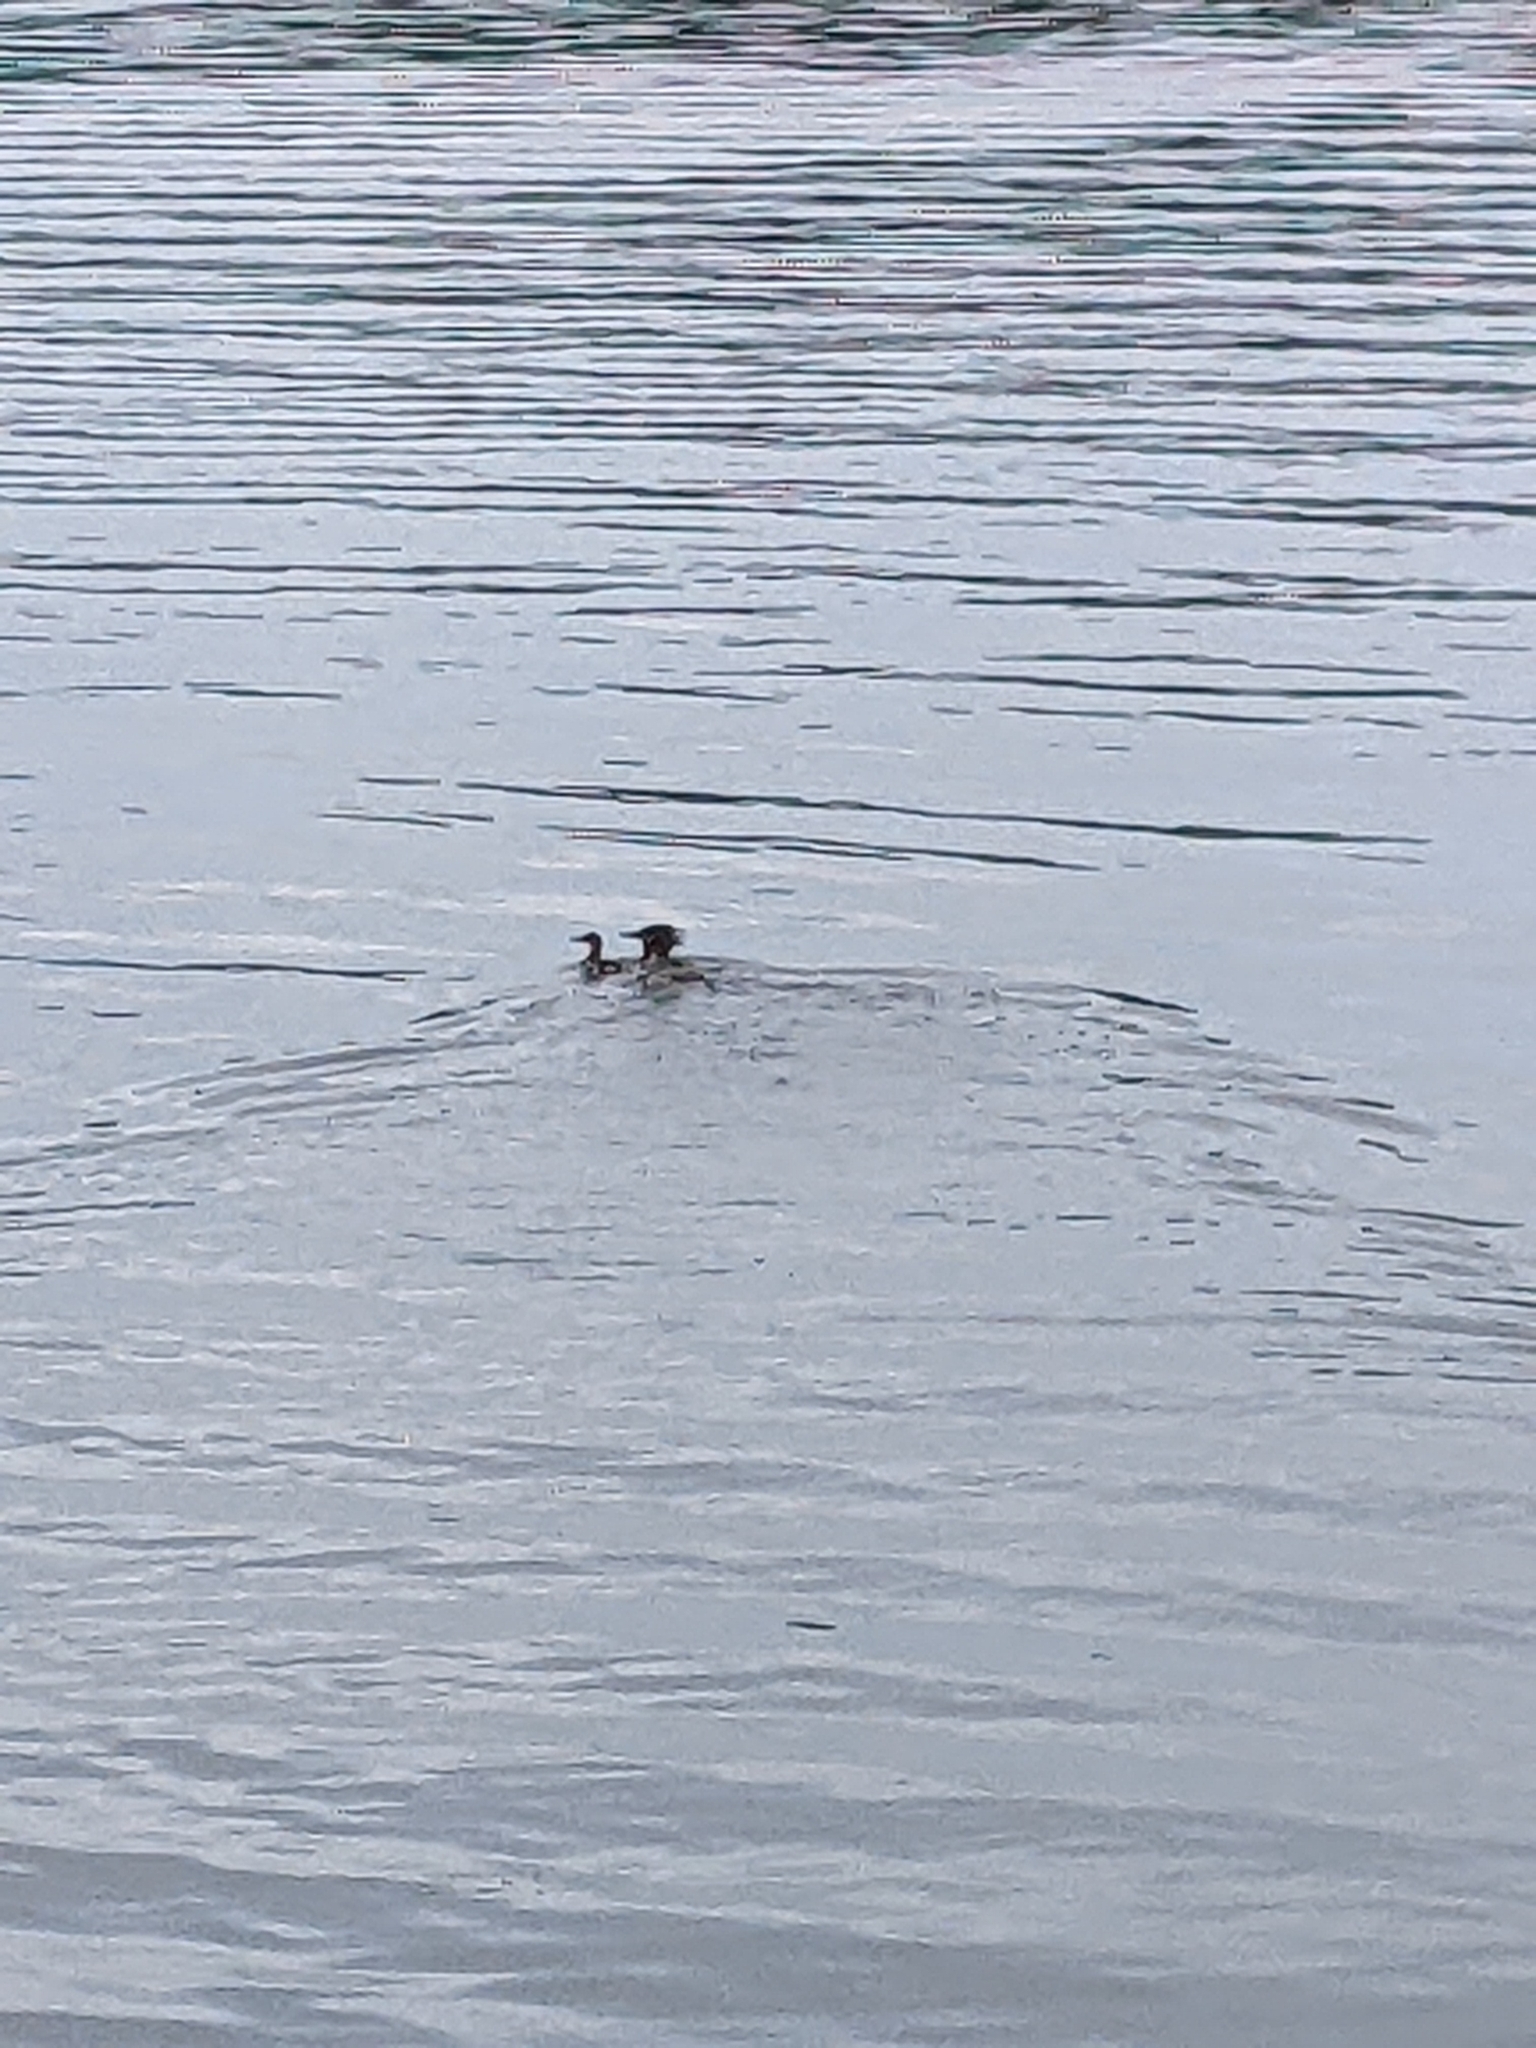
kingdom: Animalia
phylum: Chordata
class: Aves
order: Anseriformes
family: Anatidae
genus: Mergus
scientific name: Mergus merganser
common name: Common merganser
